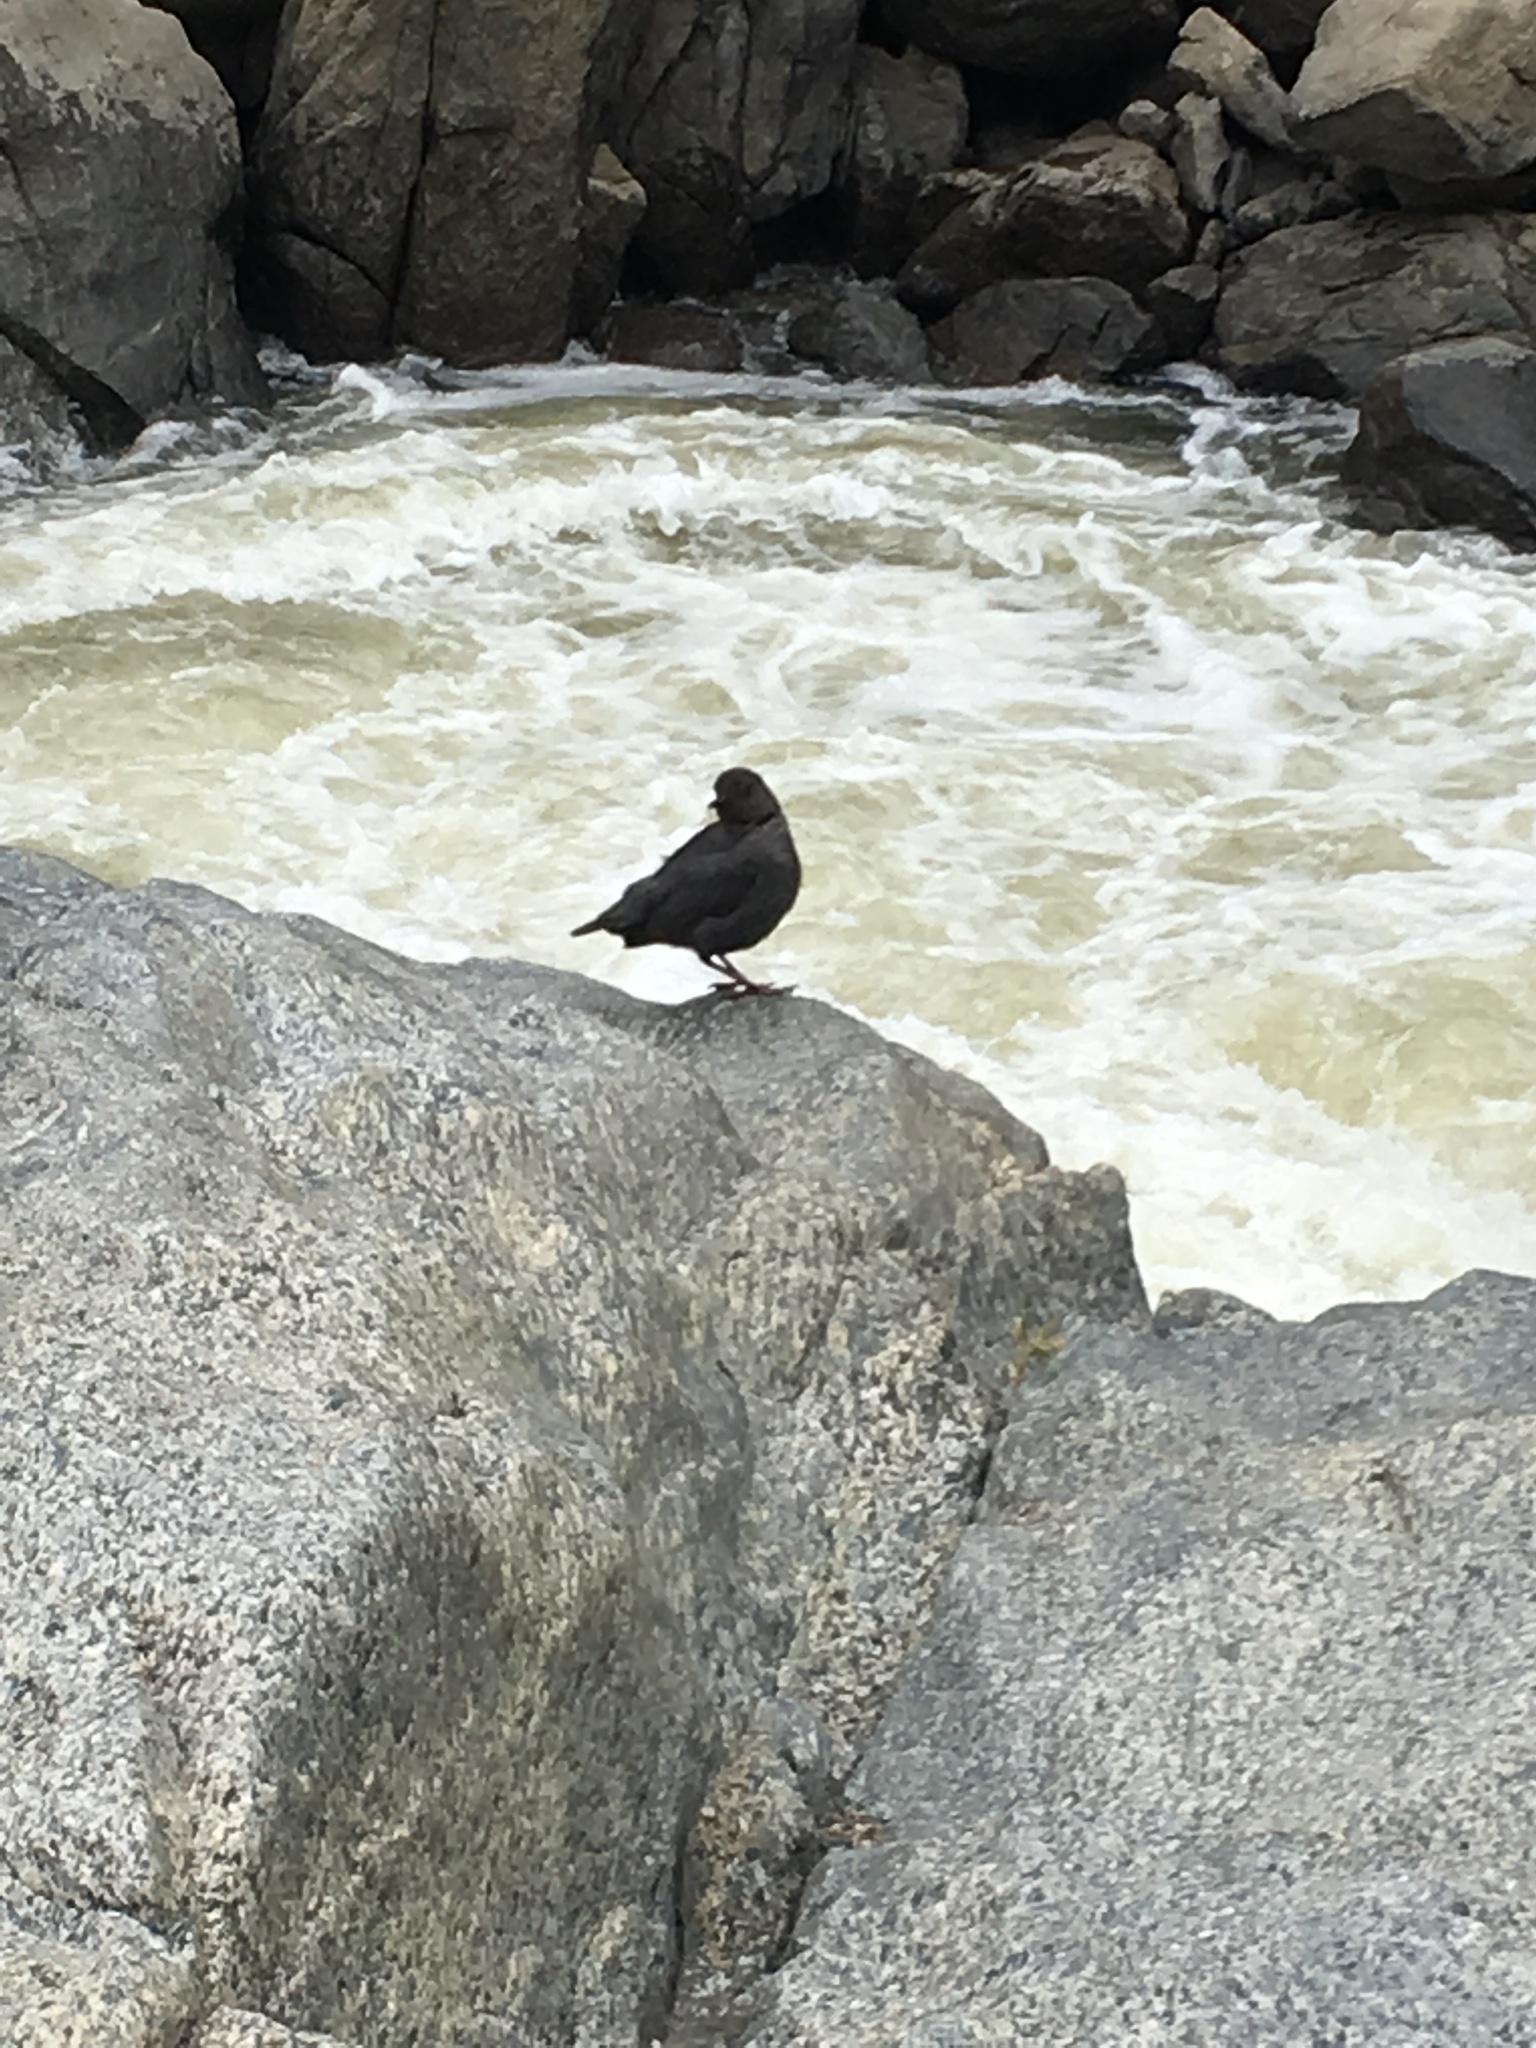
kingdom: Animalia
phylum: Chordata
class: Aves
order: Passeriformes
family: Cinclidae
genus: Cinclus
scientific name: Cinclus mexicanus
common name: American dipper
